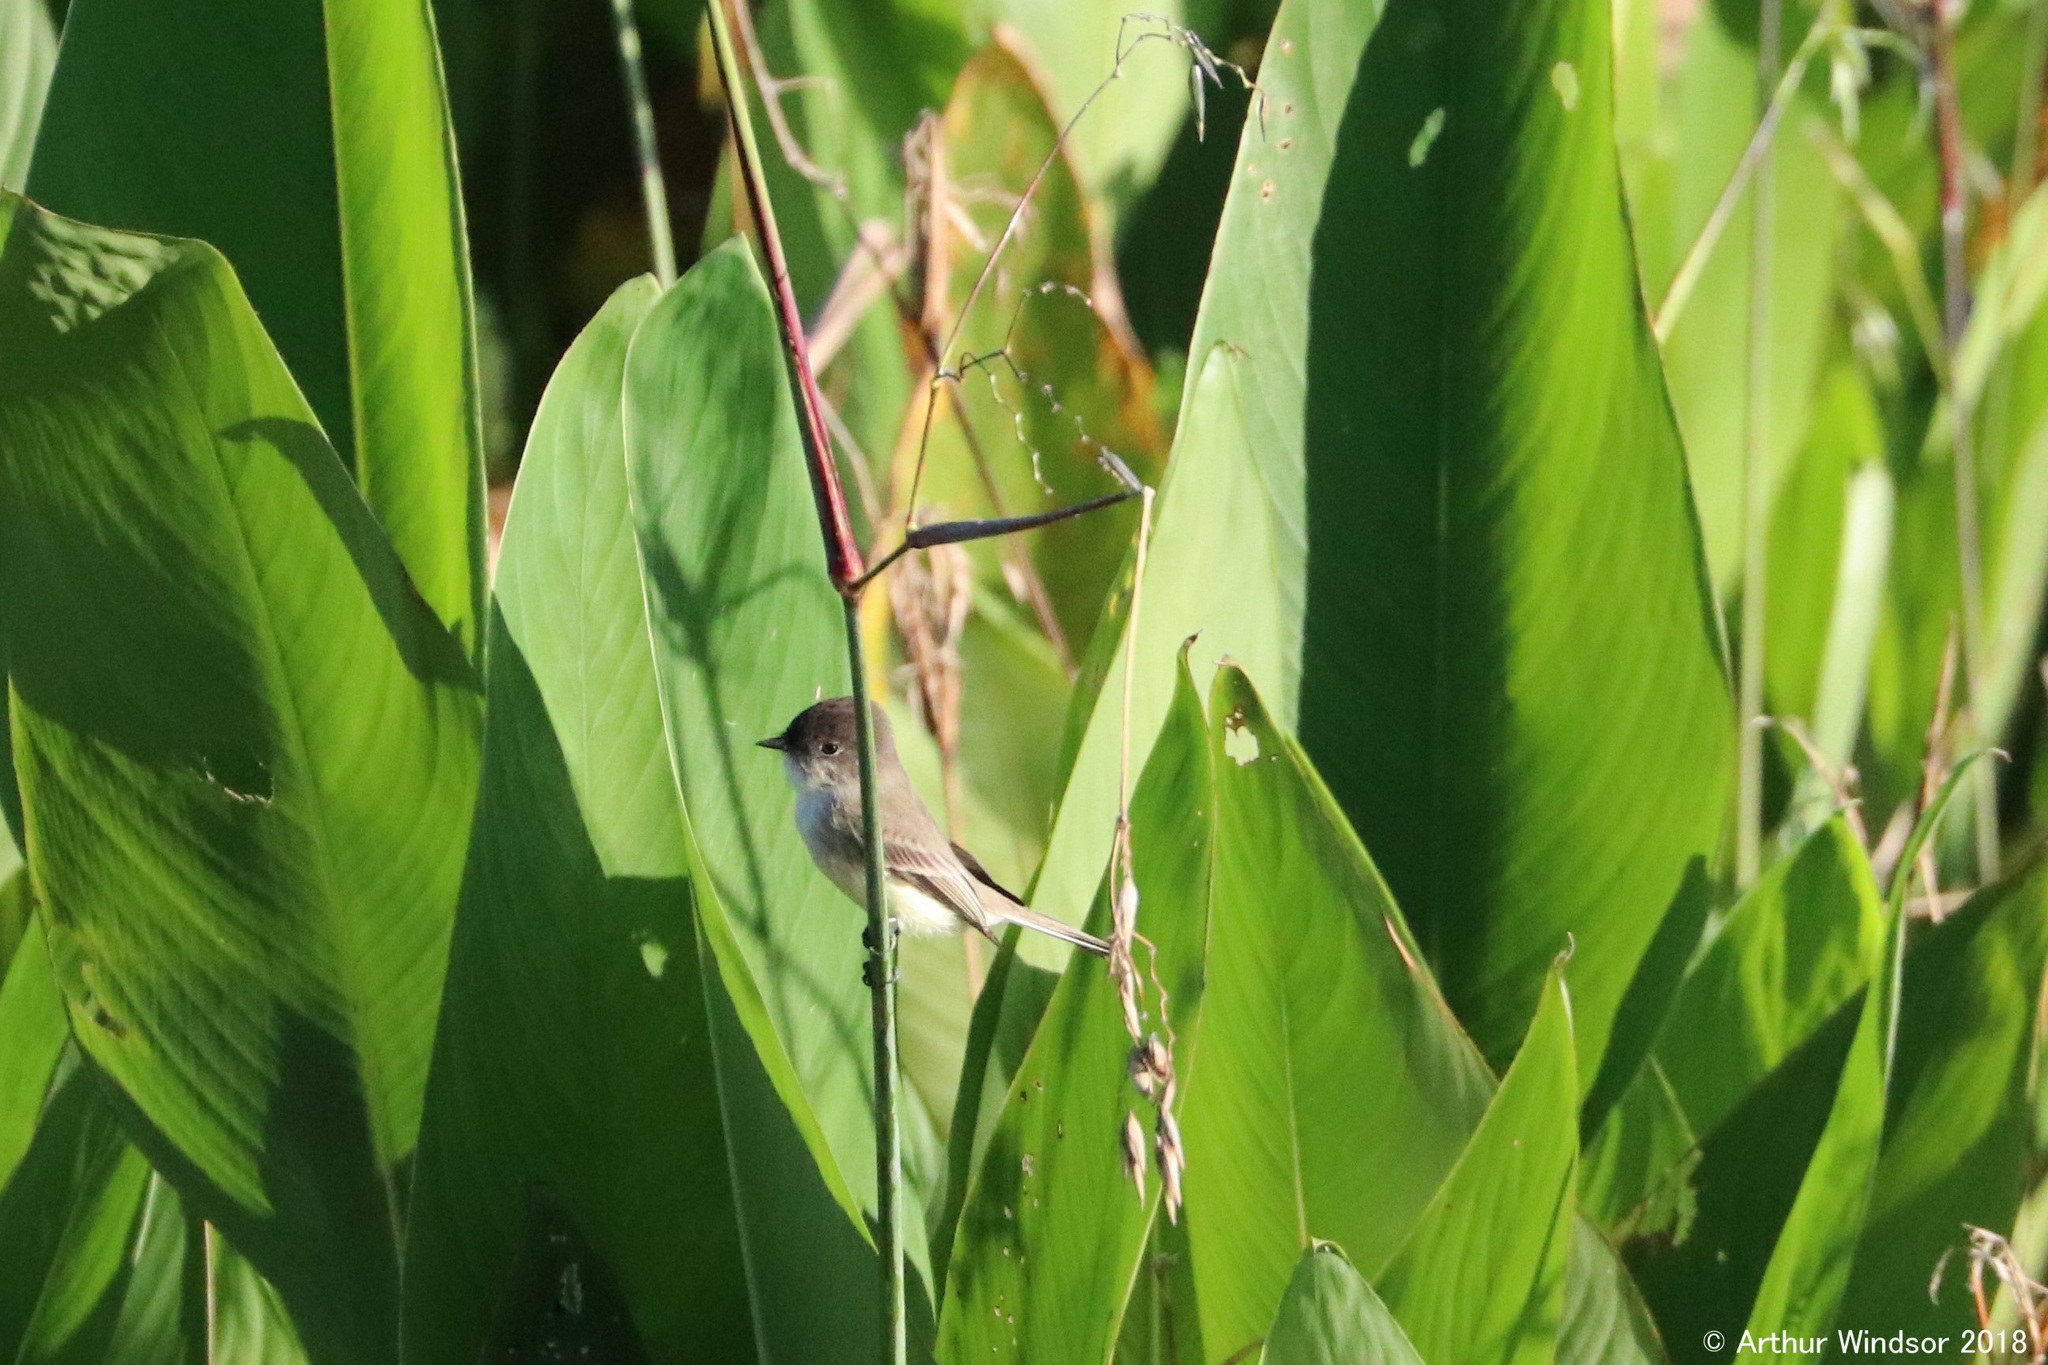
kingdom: Animalia
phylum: Chordata
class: Aves
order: Passeriformes
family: Tyrannidae
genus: Sayornis
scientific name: Sayornis phoebe
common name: Eastern phoebe
